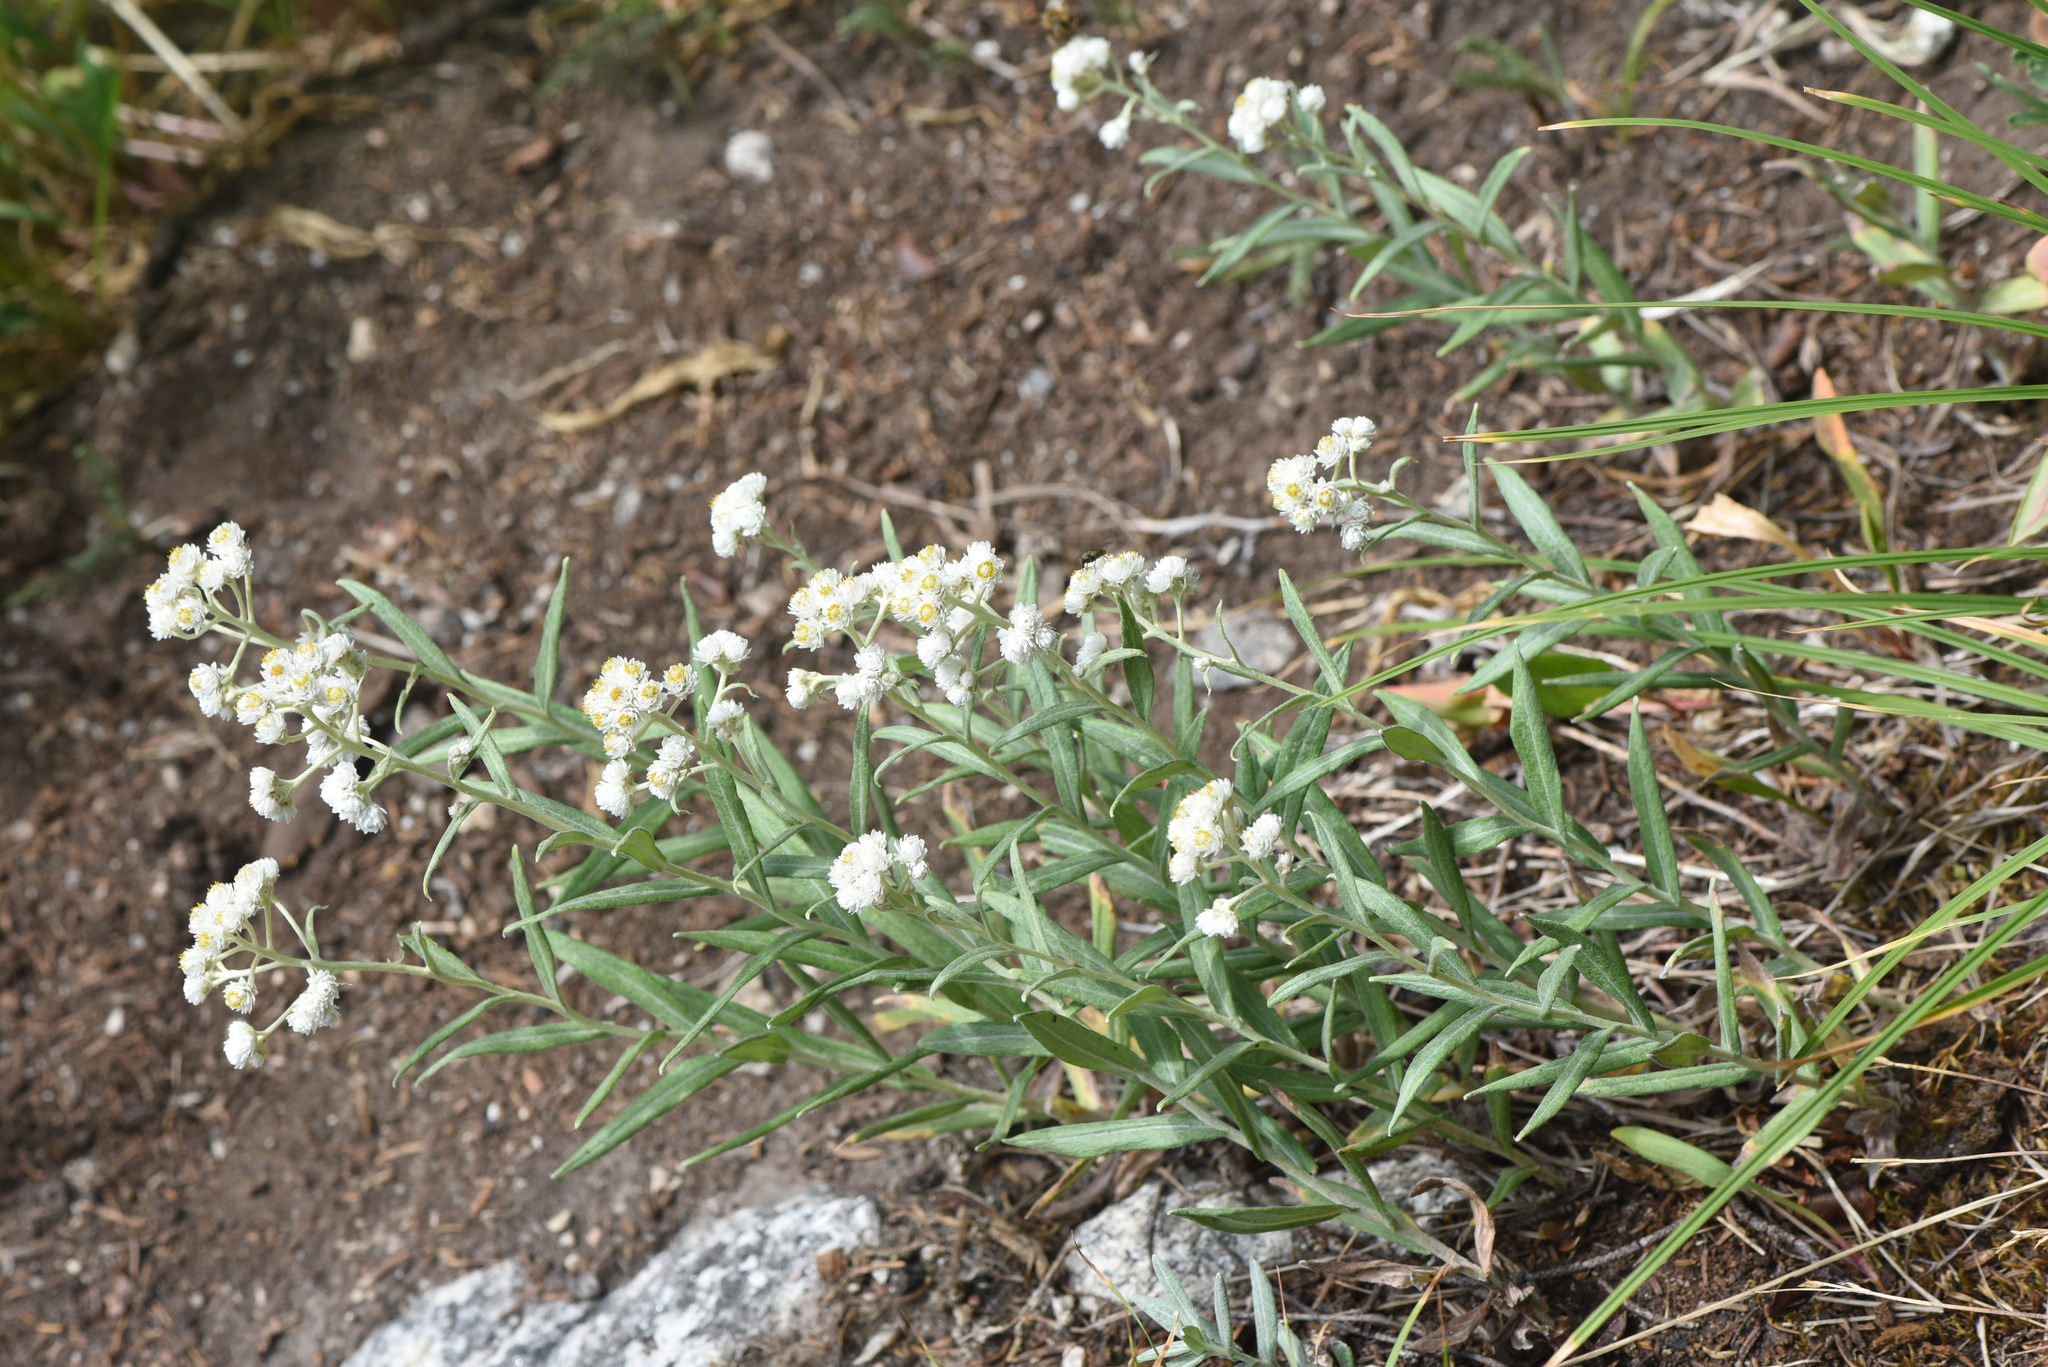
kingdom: Plantae
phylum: Tracheophyta
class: Magnoliopsida
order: Asterales
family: Asteraceae
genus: Anaphalis
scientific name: Anaphalis margaritacea
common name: Pearly everlasting
